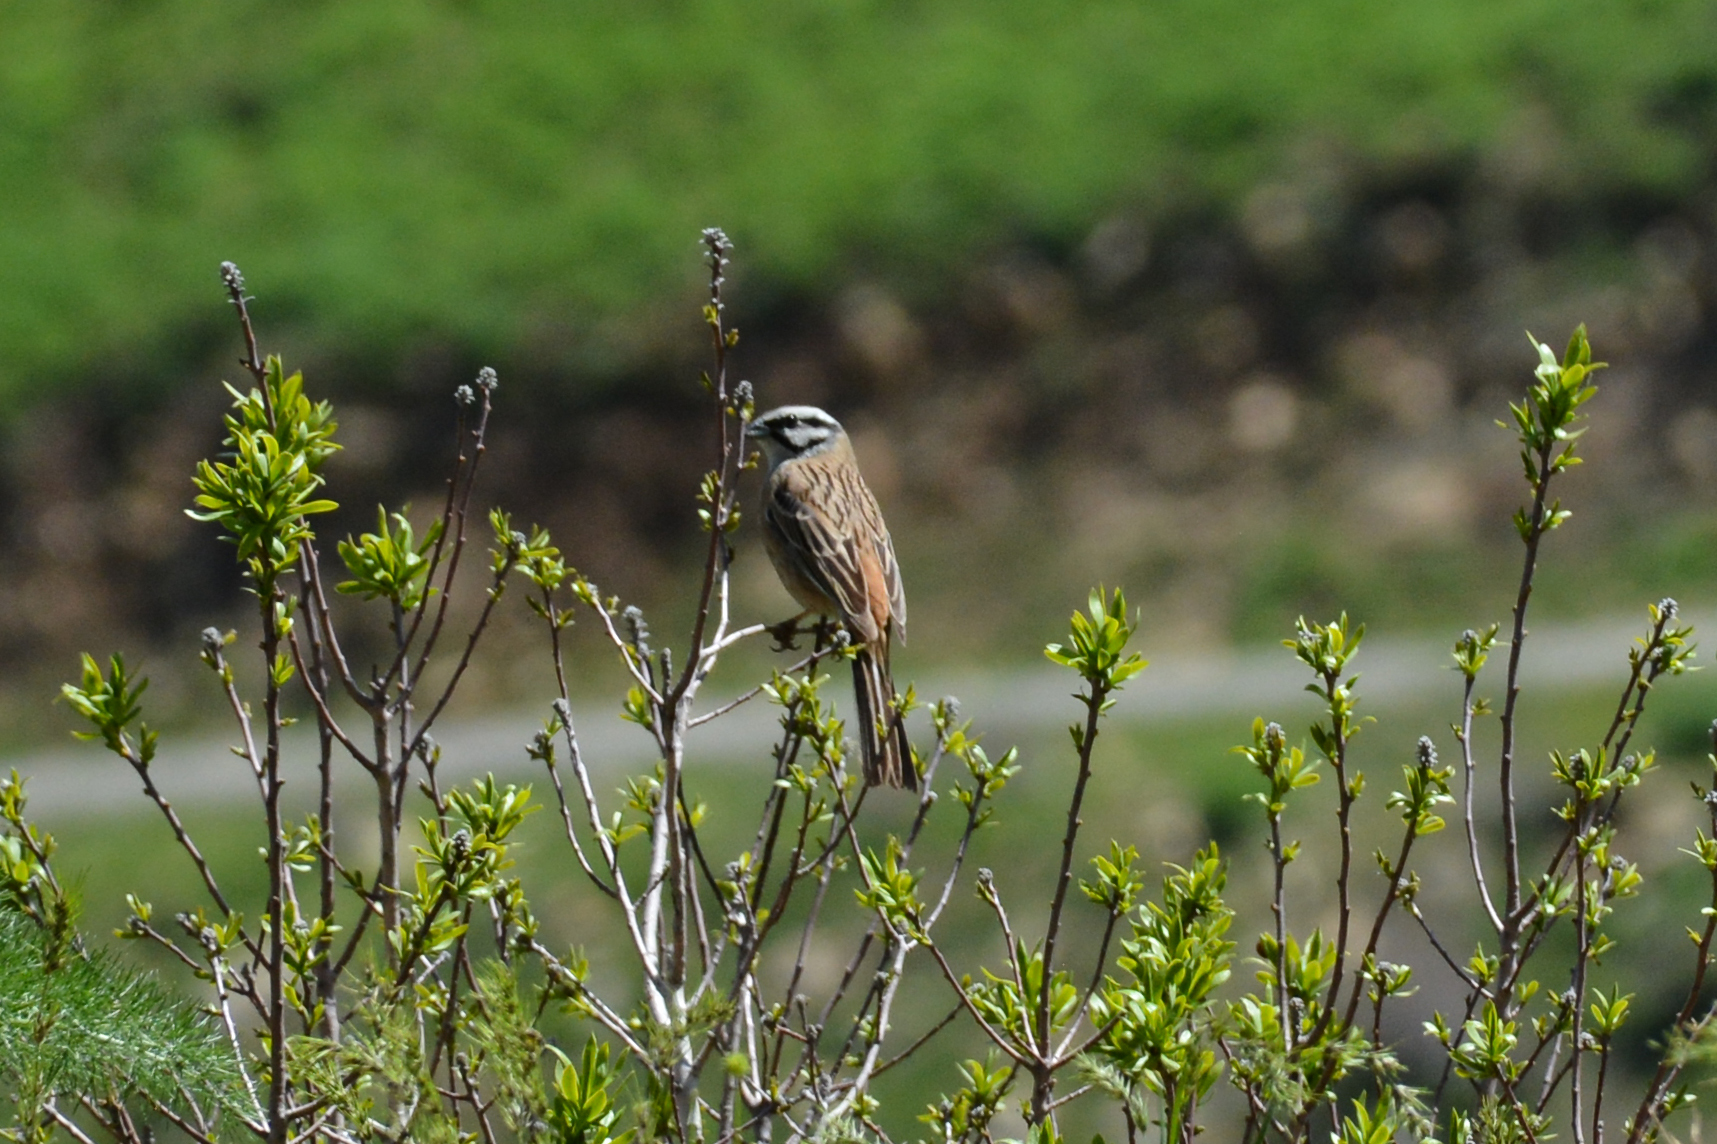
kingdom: Animalia
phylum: Chordata
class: Aves
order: Passeriformes
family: Emberizidae
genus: Emberiza
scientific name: Emberiza cia
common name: Rock bunting
